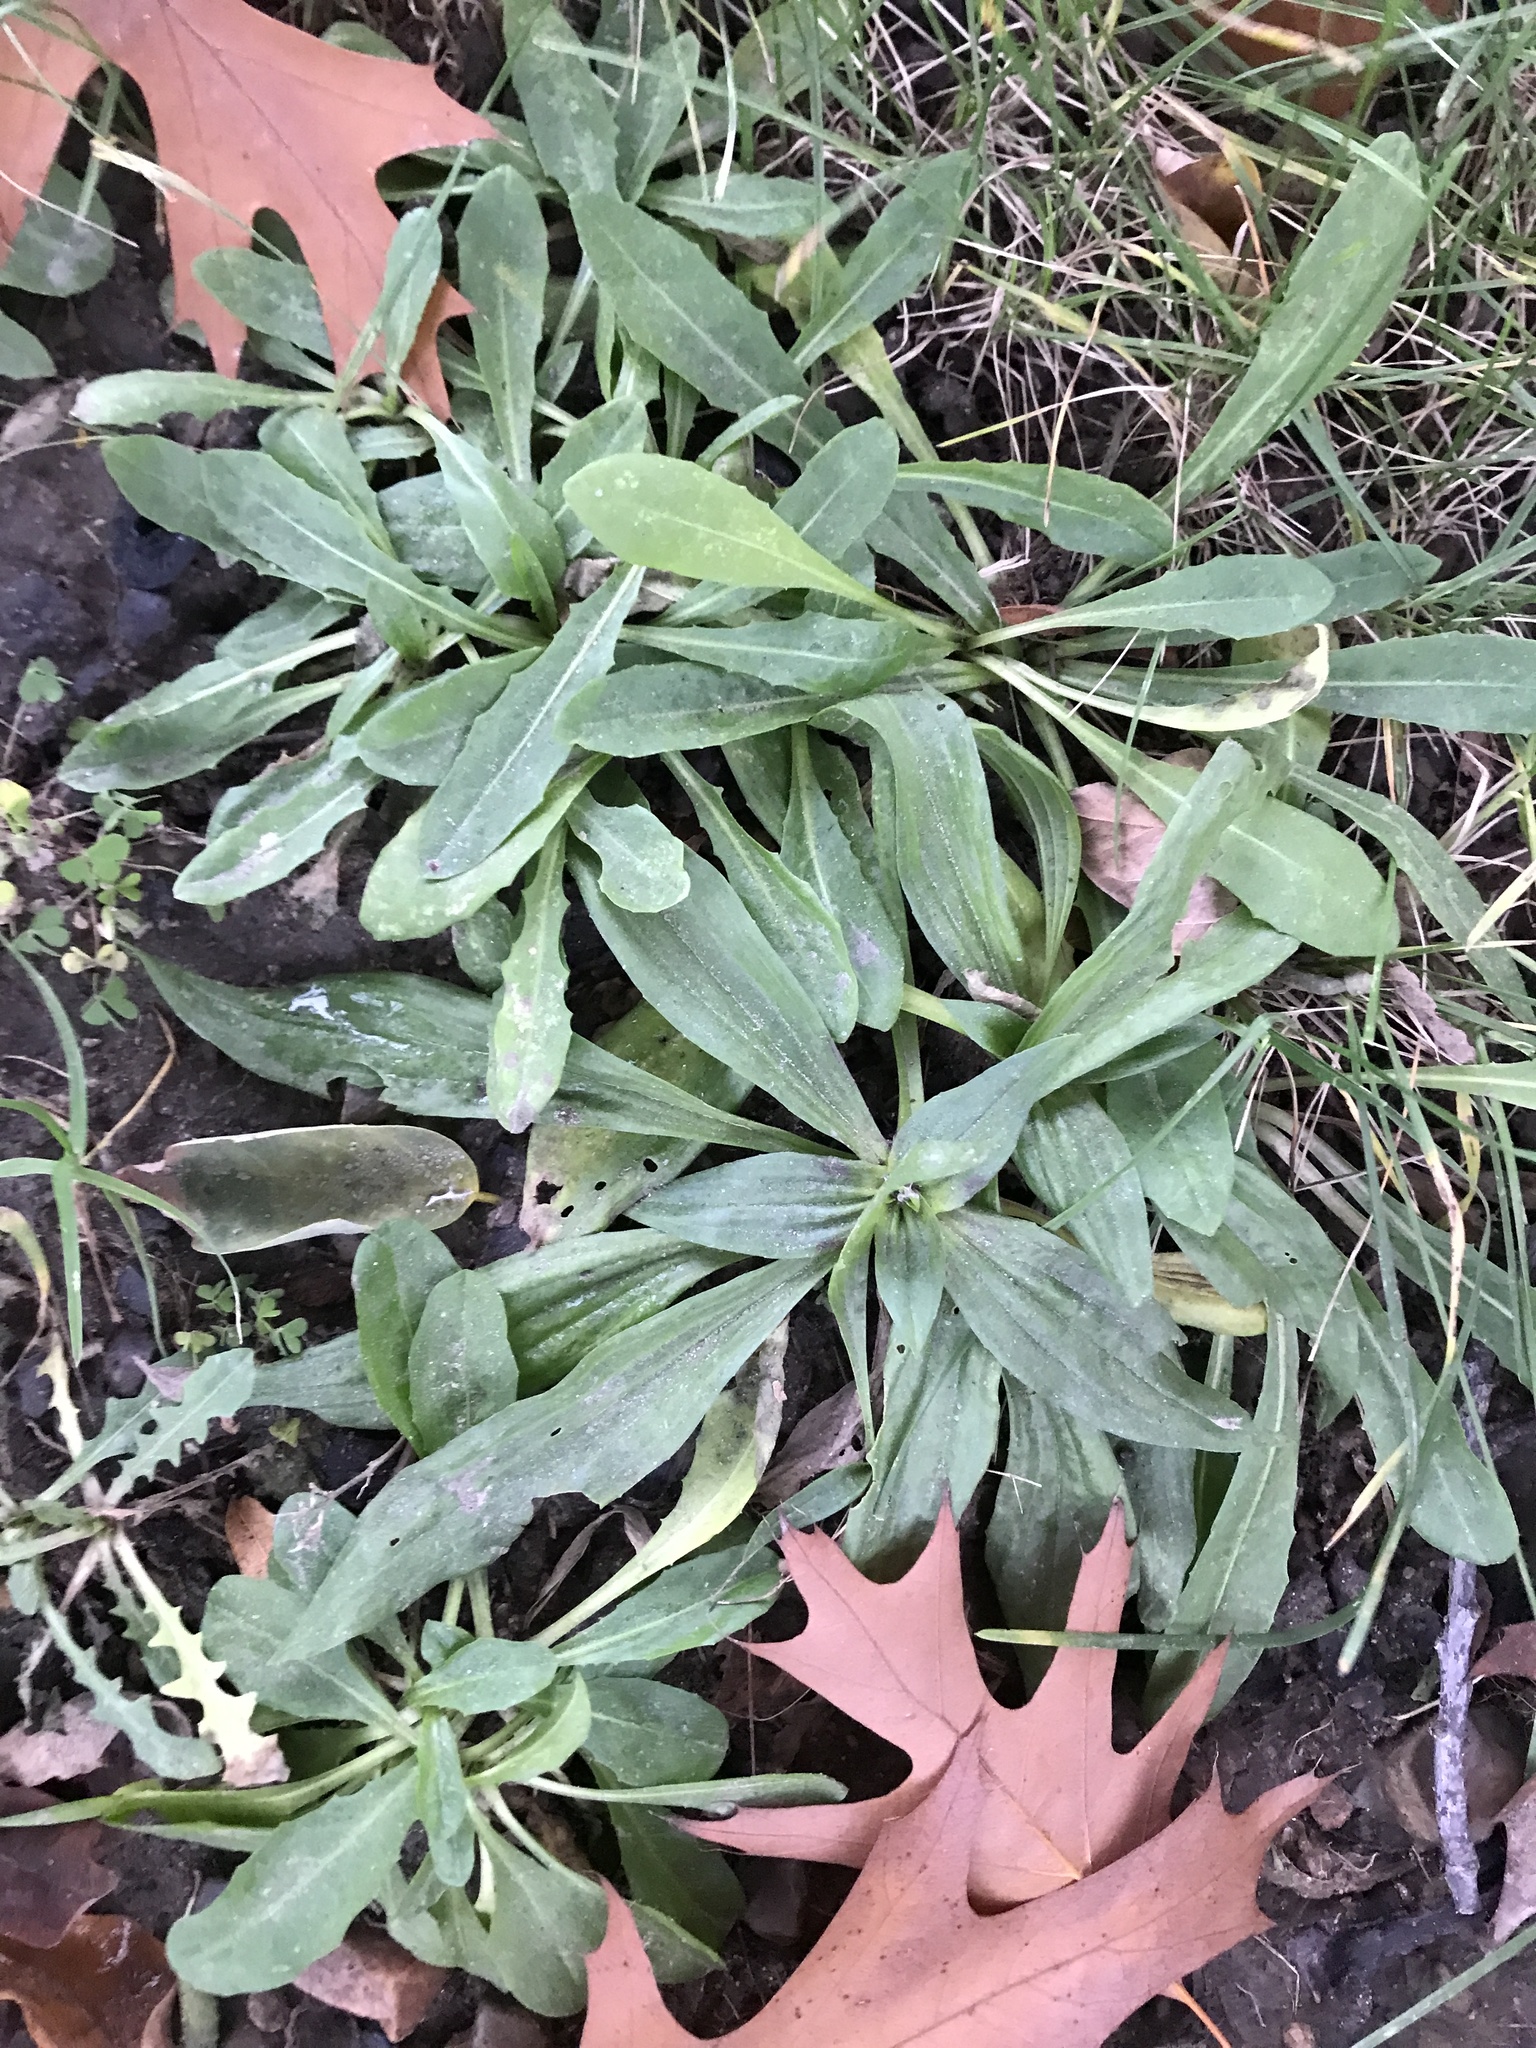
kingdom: Plantae
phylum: Tracheophyta
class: Magnoliopsida
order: Lamiales
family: Plantaginaceae
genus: Plantago
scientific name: Plantago lanceolata
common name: Ribwort plantain
